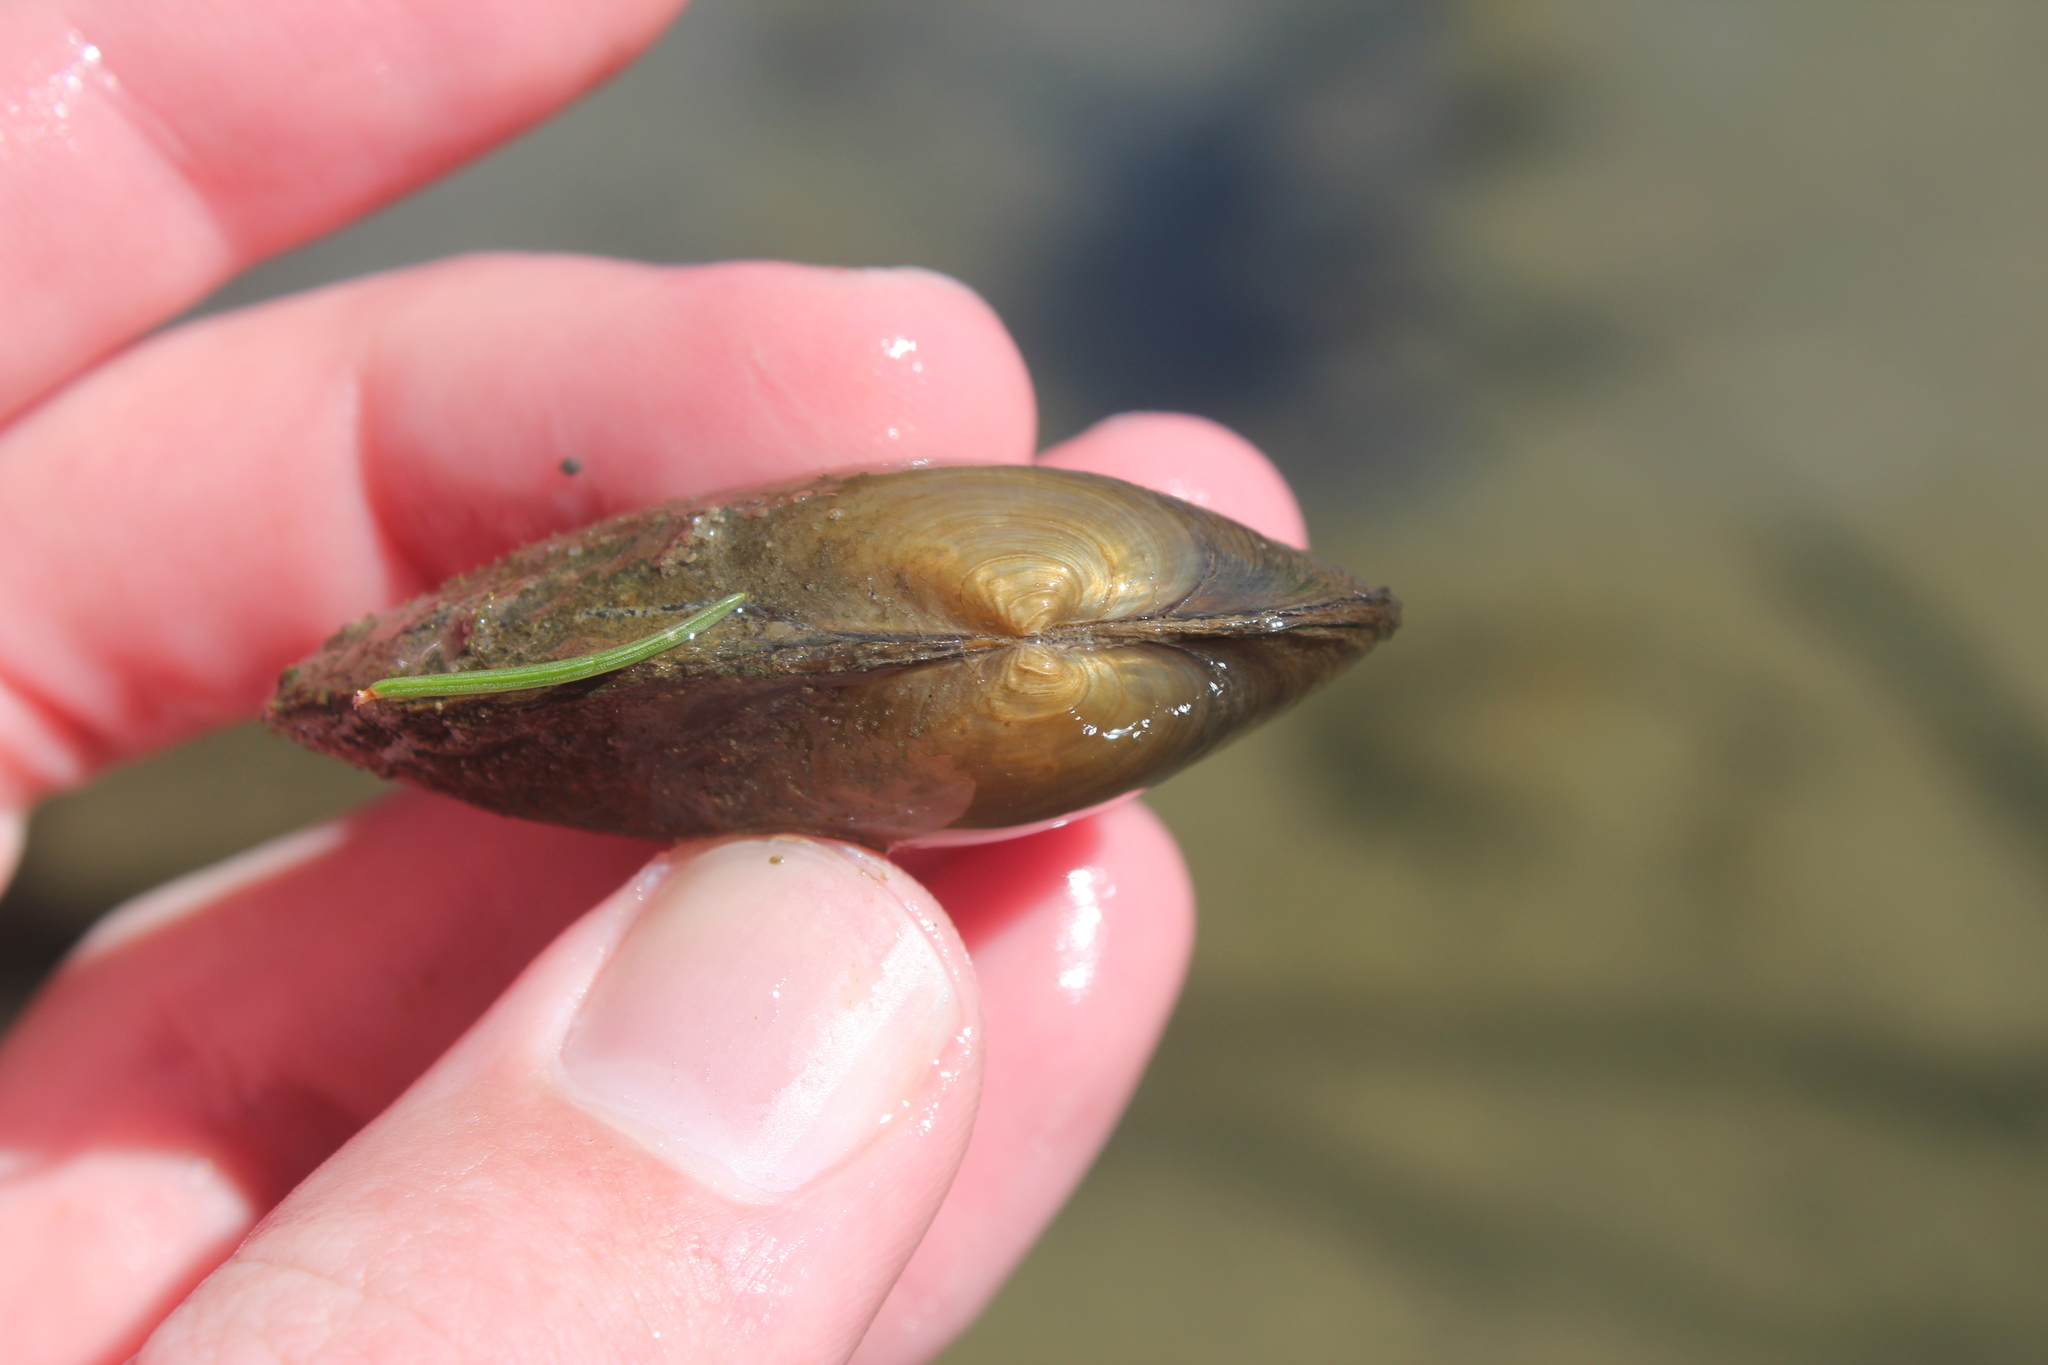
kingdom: Animalia
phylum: Mollusca
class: Bivalvia
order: Unionida
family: Unionidae
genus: Anodontoides
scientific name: Anodontoides ferussacianus
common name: Cylindrical papershell
